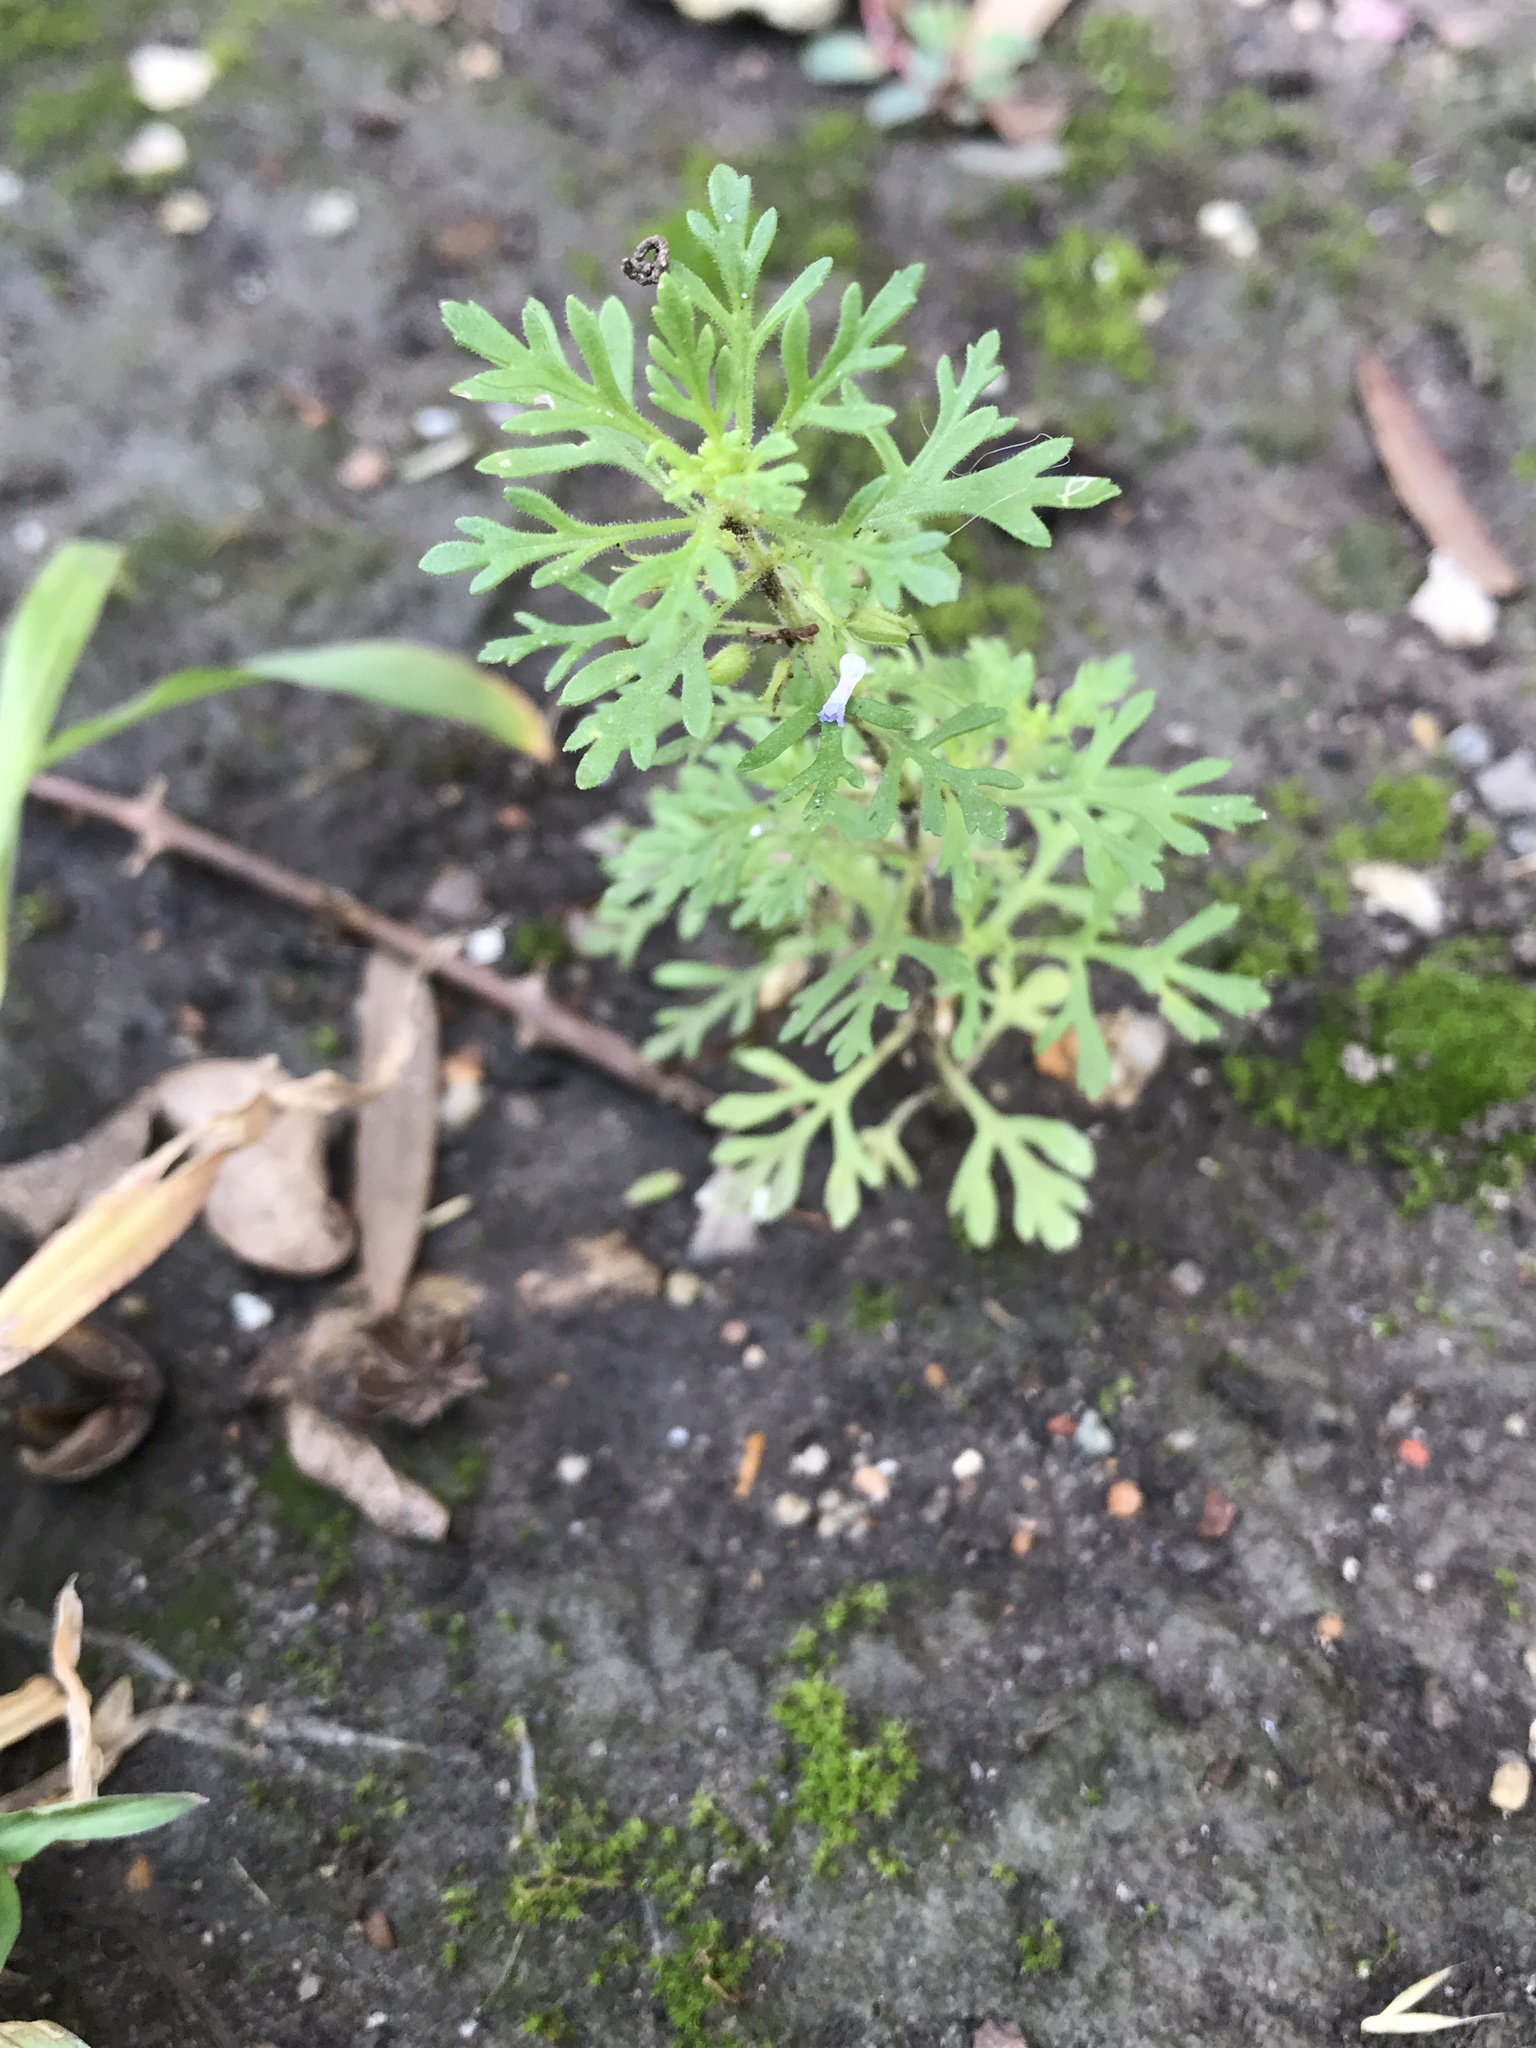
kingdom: Plantae
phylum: Tracheophyta
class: Magnoliopsida
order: Lamiales
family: Plantaginaceae
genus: Leucospora
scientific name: Leucospora multifida
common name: Narrow-leaf paleseed
